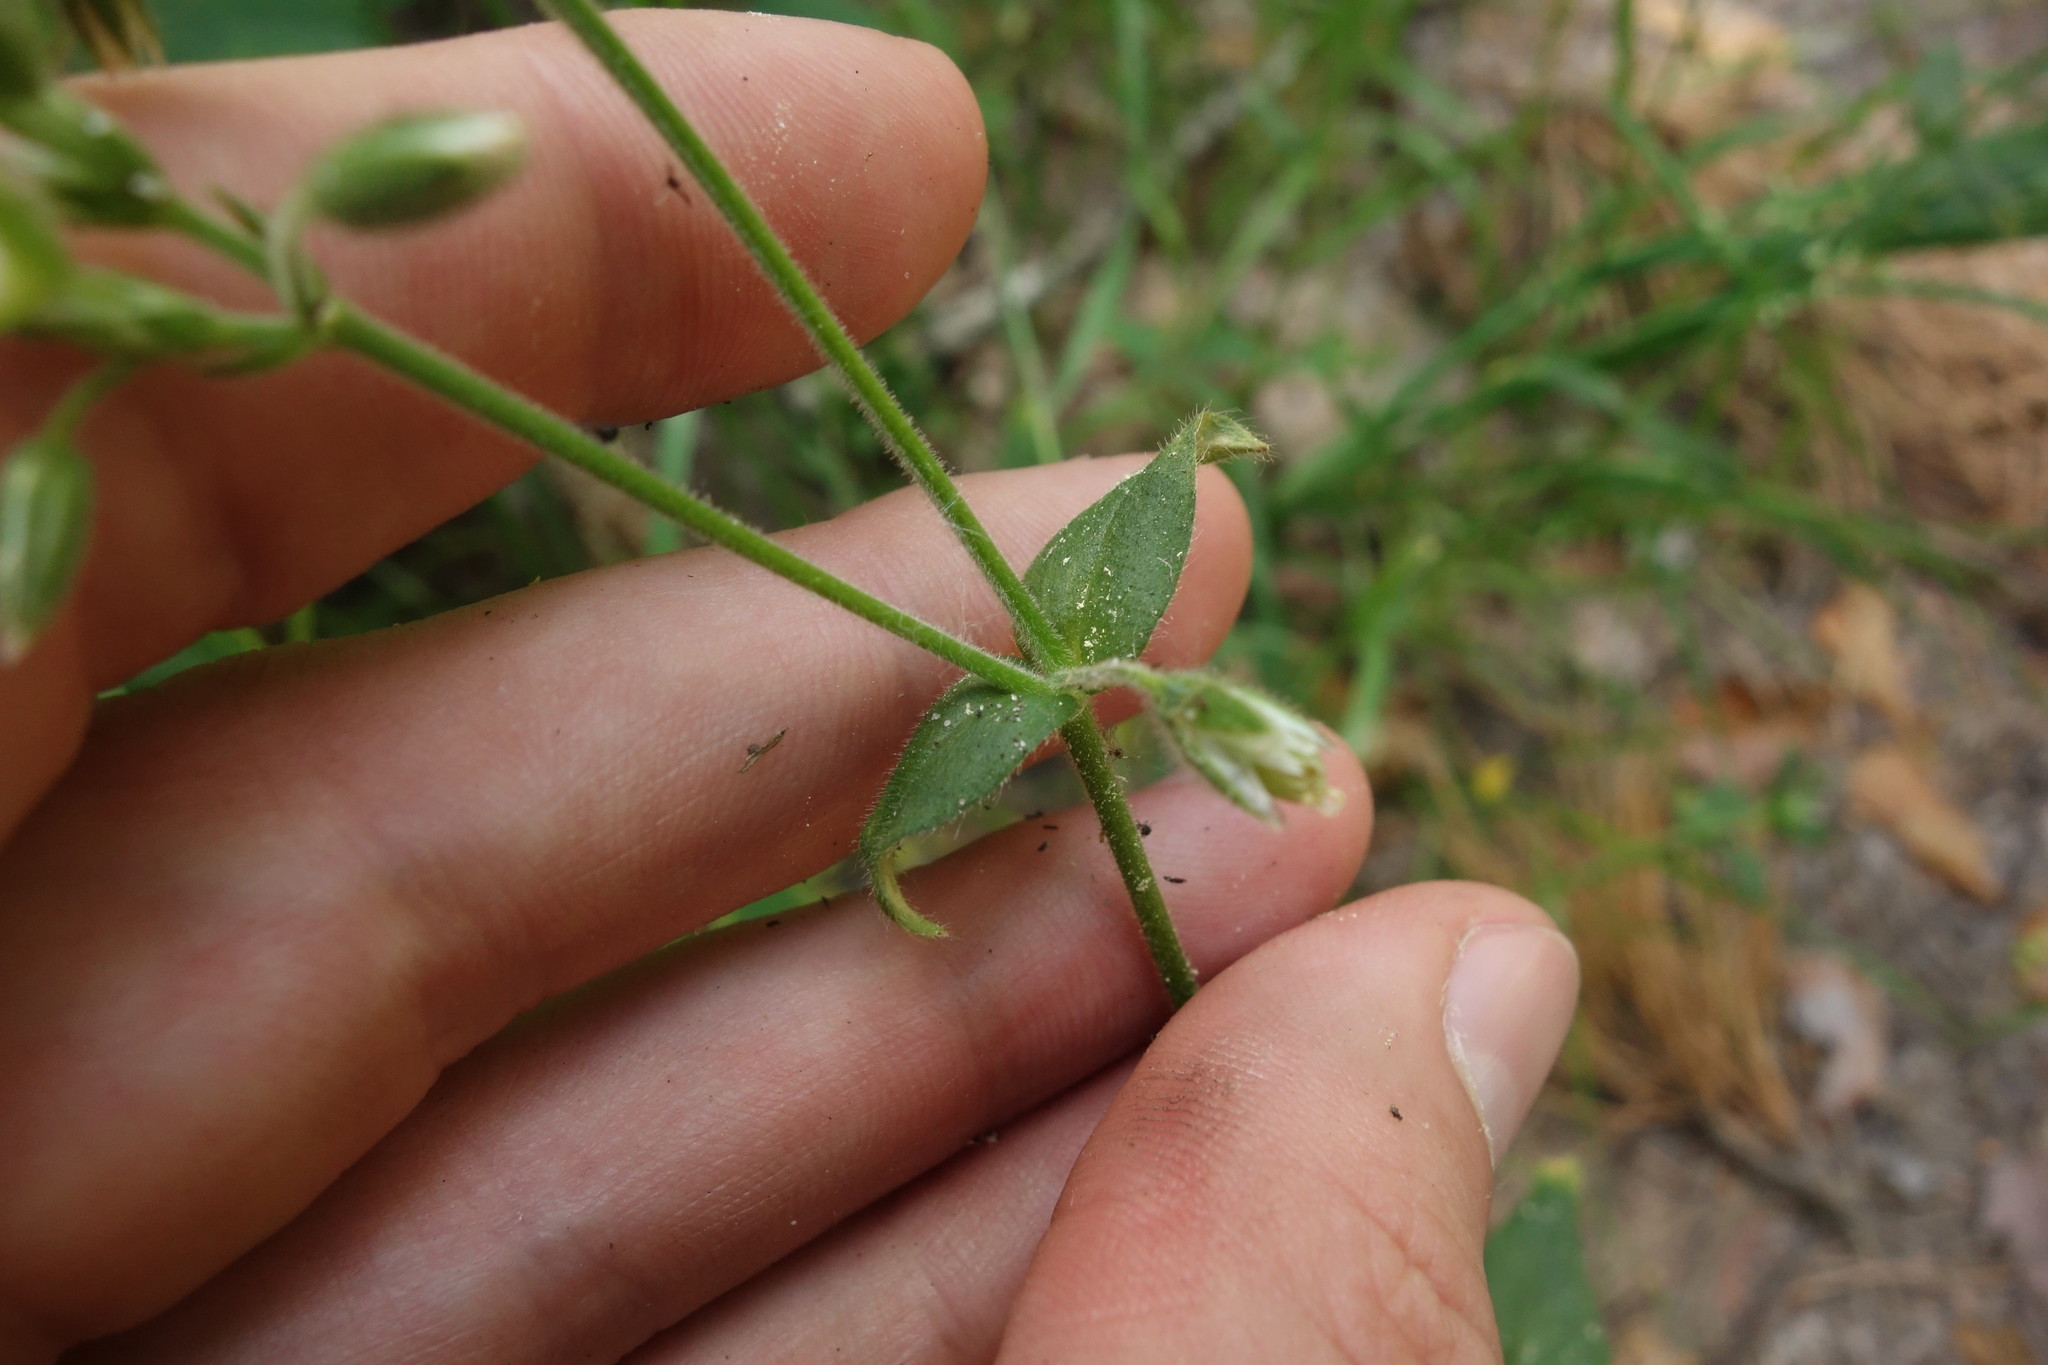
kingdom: Plantae
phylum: Tracheophyta
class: Magnoliopsida
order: Caryophyllales
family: Caryophyllaceae
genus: Cerastium
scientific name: Cerastium holosteoides
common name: Big chickweed
